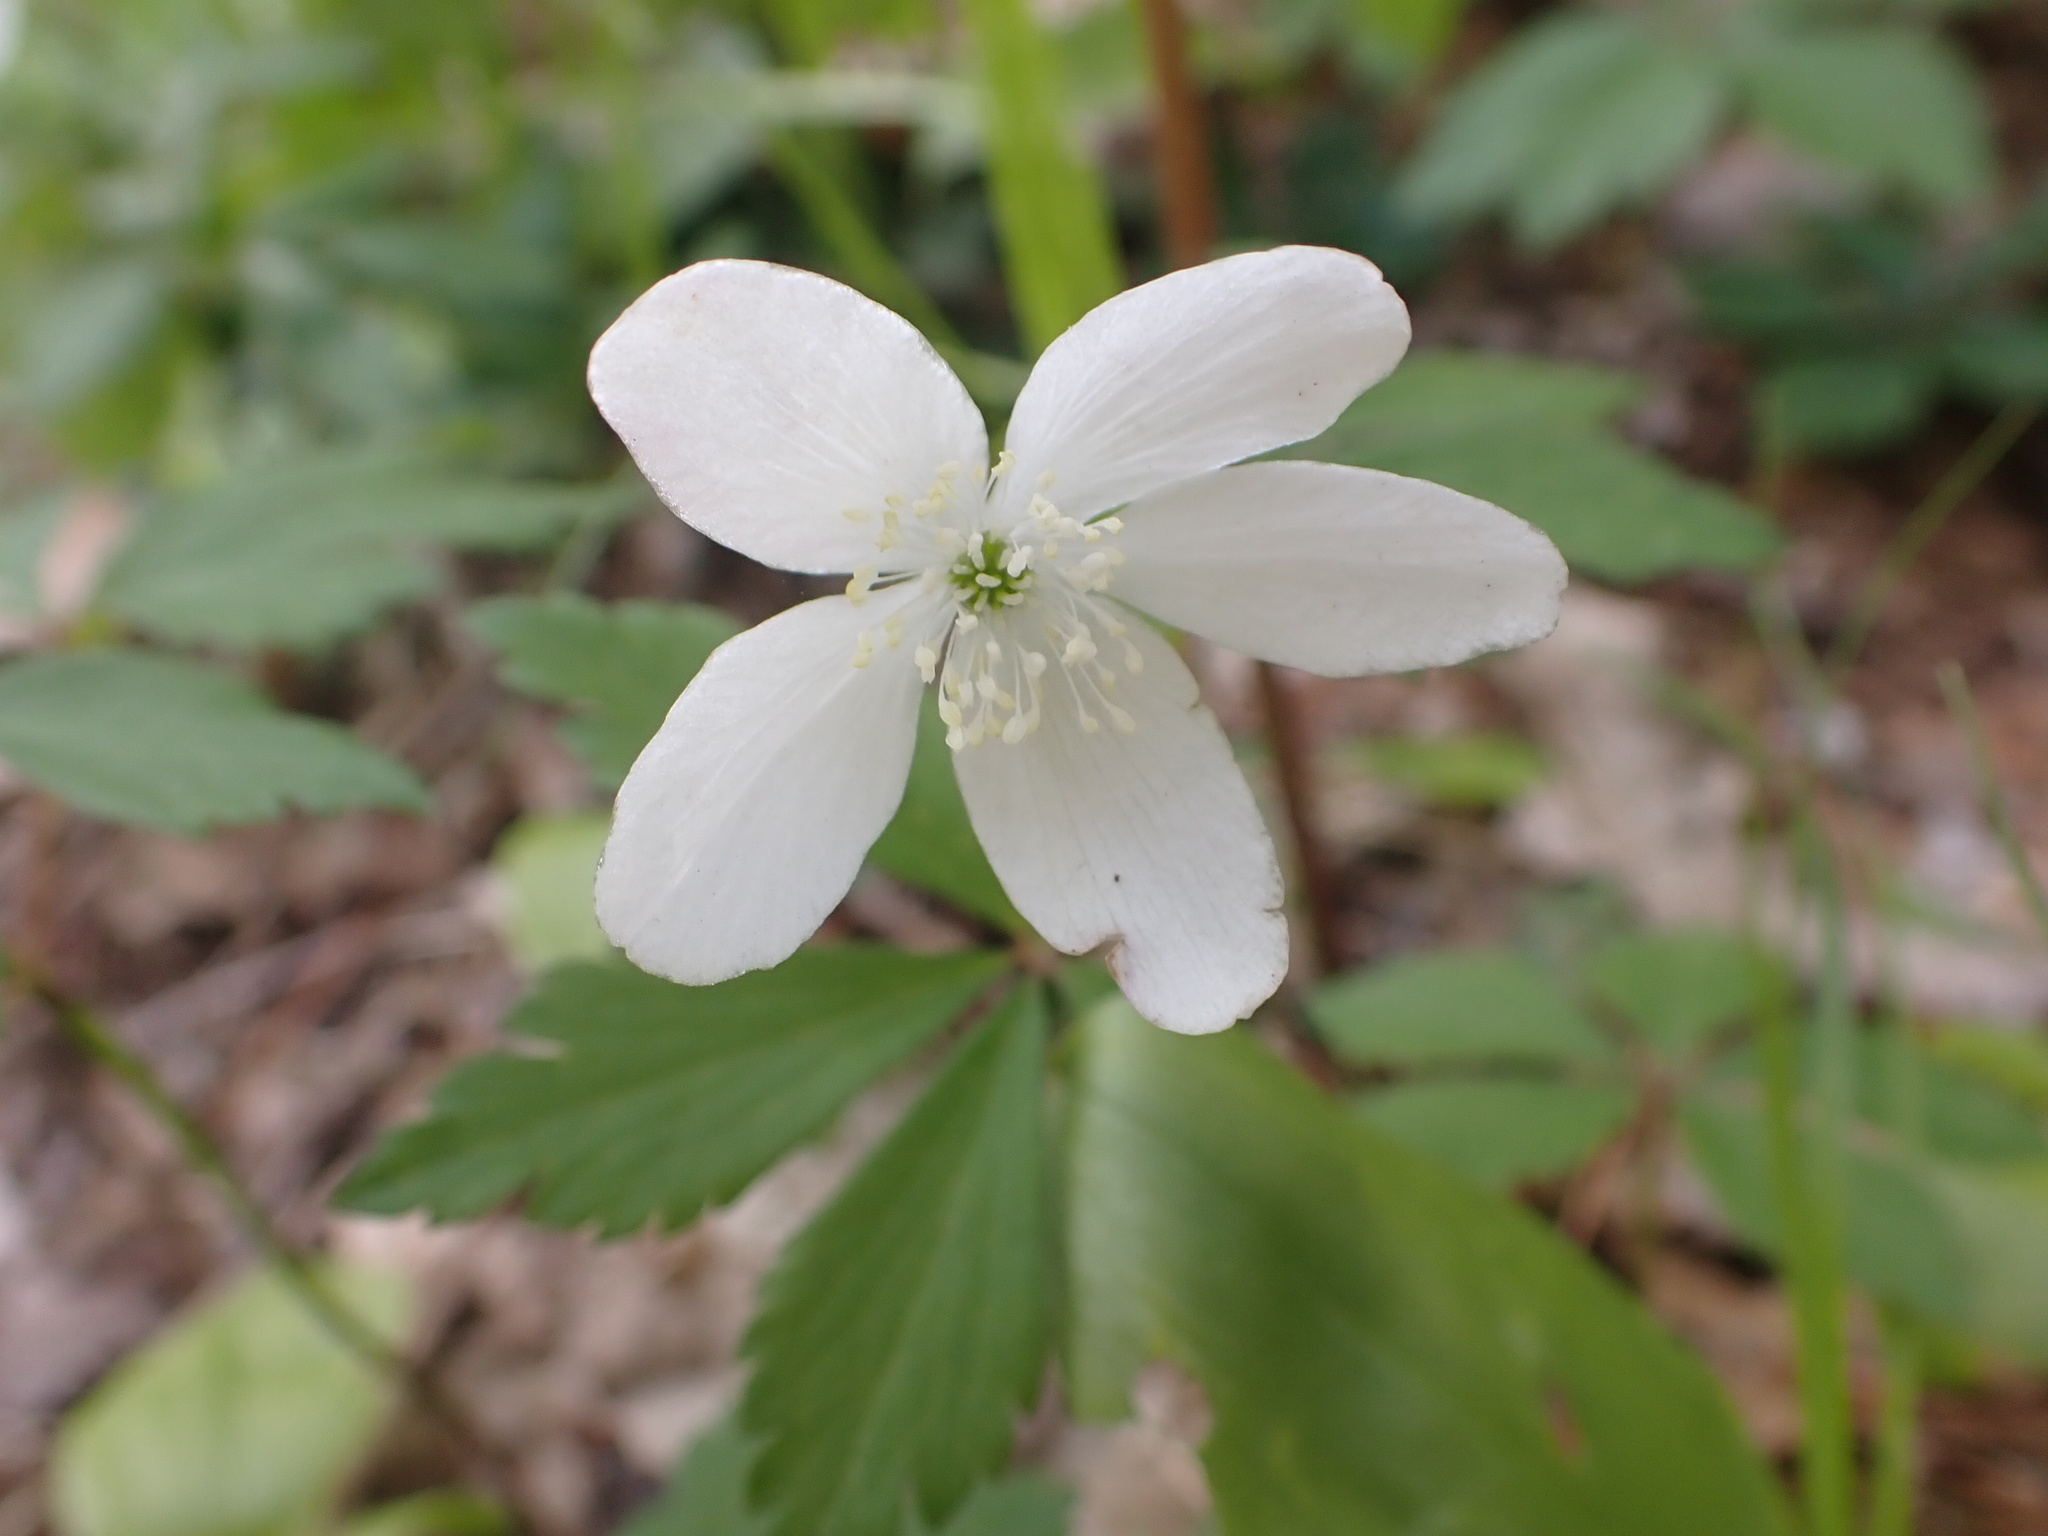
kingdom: Plantae
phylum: Tracheophyta
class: Magnoliopsida
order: Ranunculales
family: Ranunculaceae
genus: Anemone
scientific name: Anemone quinquefolia
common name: Wood anemone
